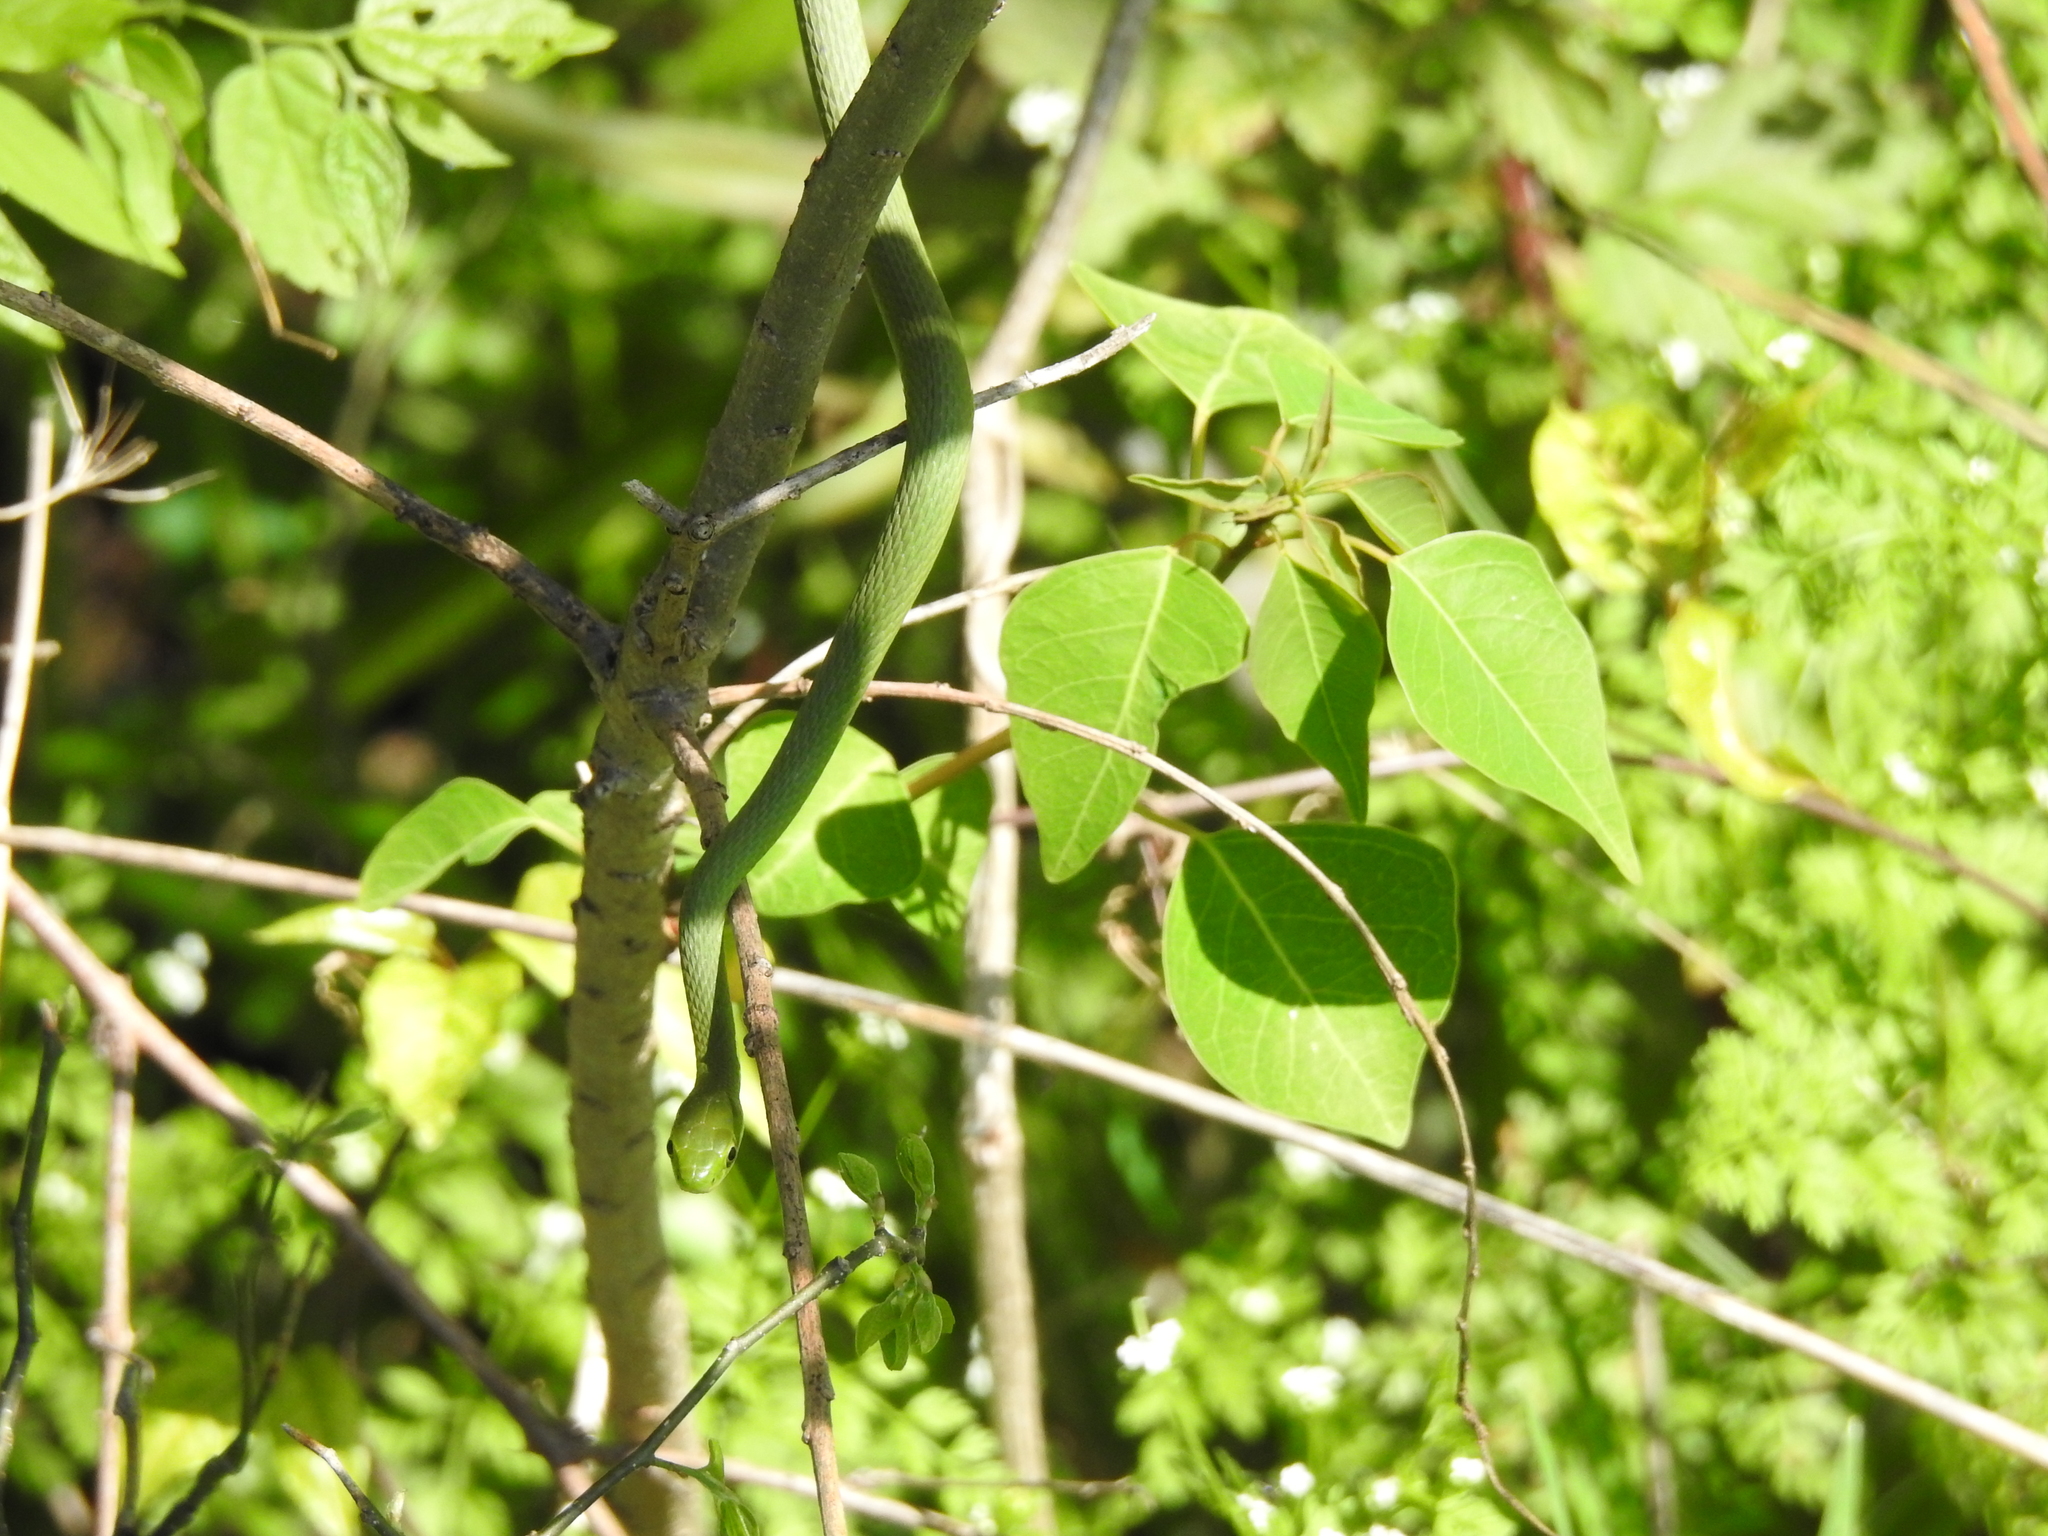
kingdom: Animalia
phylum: Chordata
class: Squamata
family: Colubridae
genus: Opheodrys
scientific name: Opheodrys aestivus
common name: Rough greensnake
